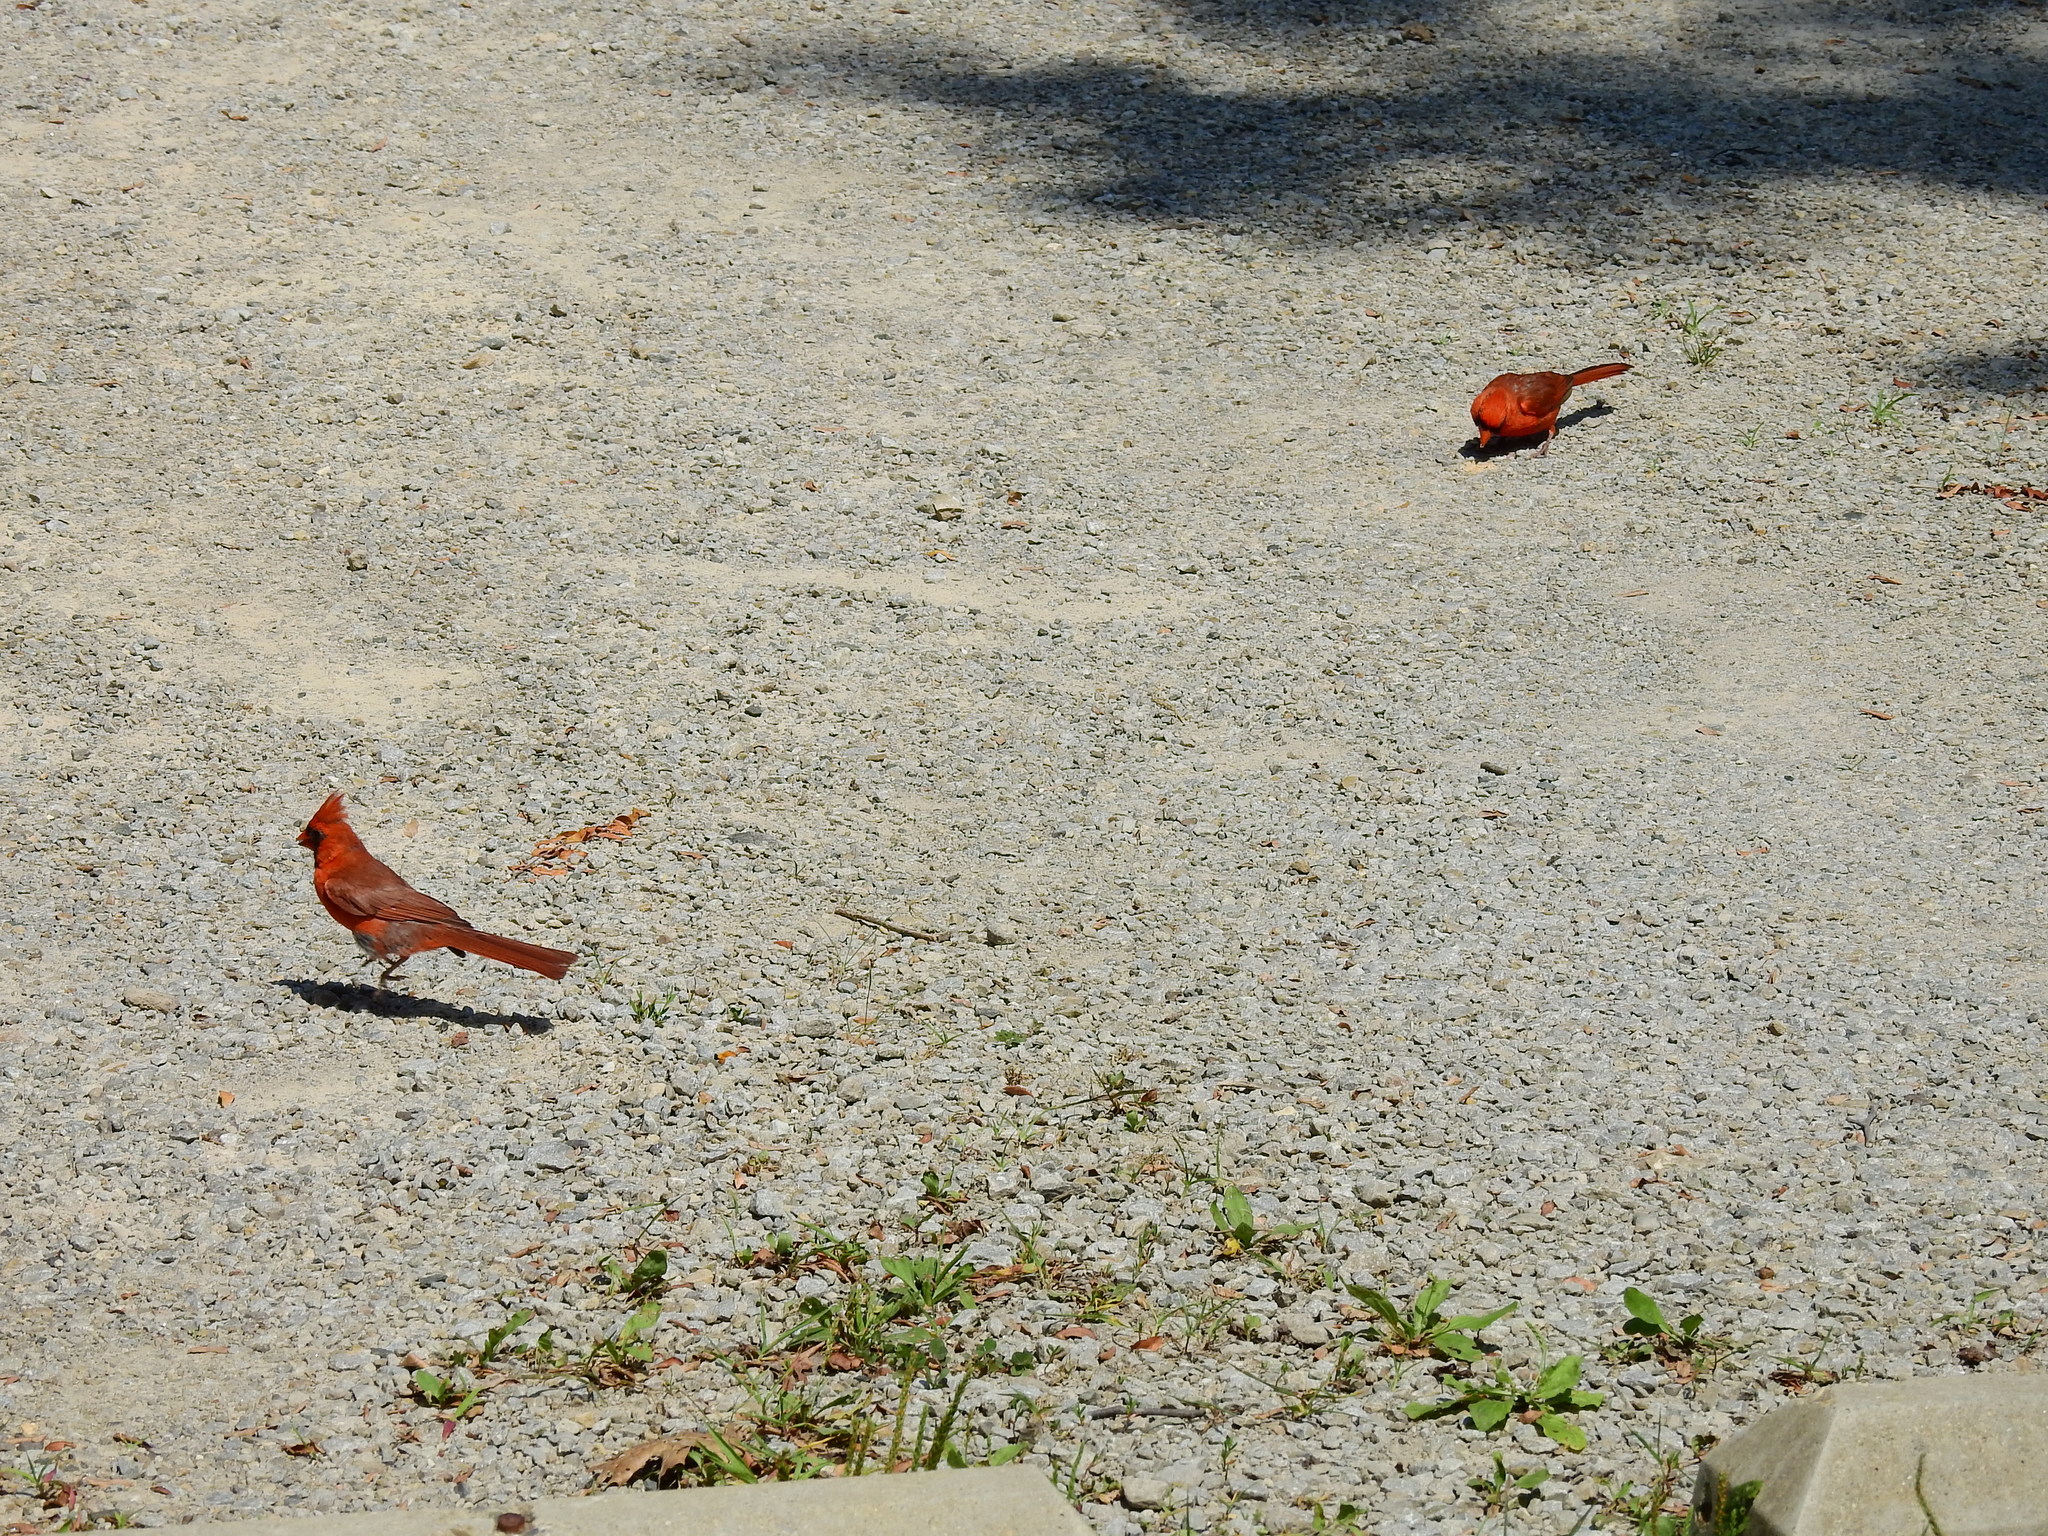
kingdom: Animalia
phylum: Chordata
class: Aves
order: Passeriformes
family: Cardinalidae
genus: Cardinalis
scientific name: Cardinalis cardinalis
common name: Northern cardinal
